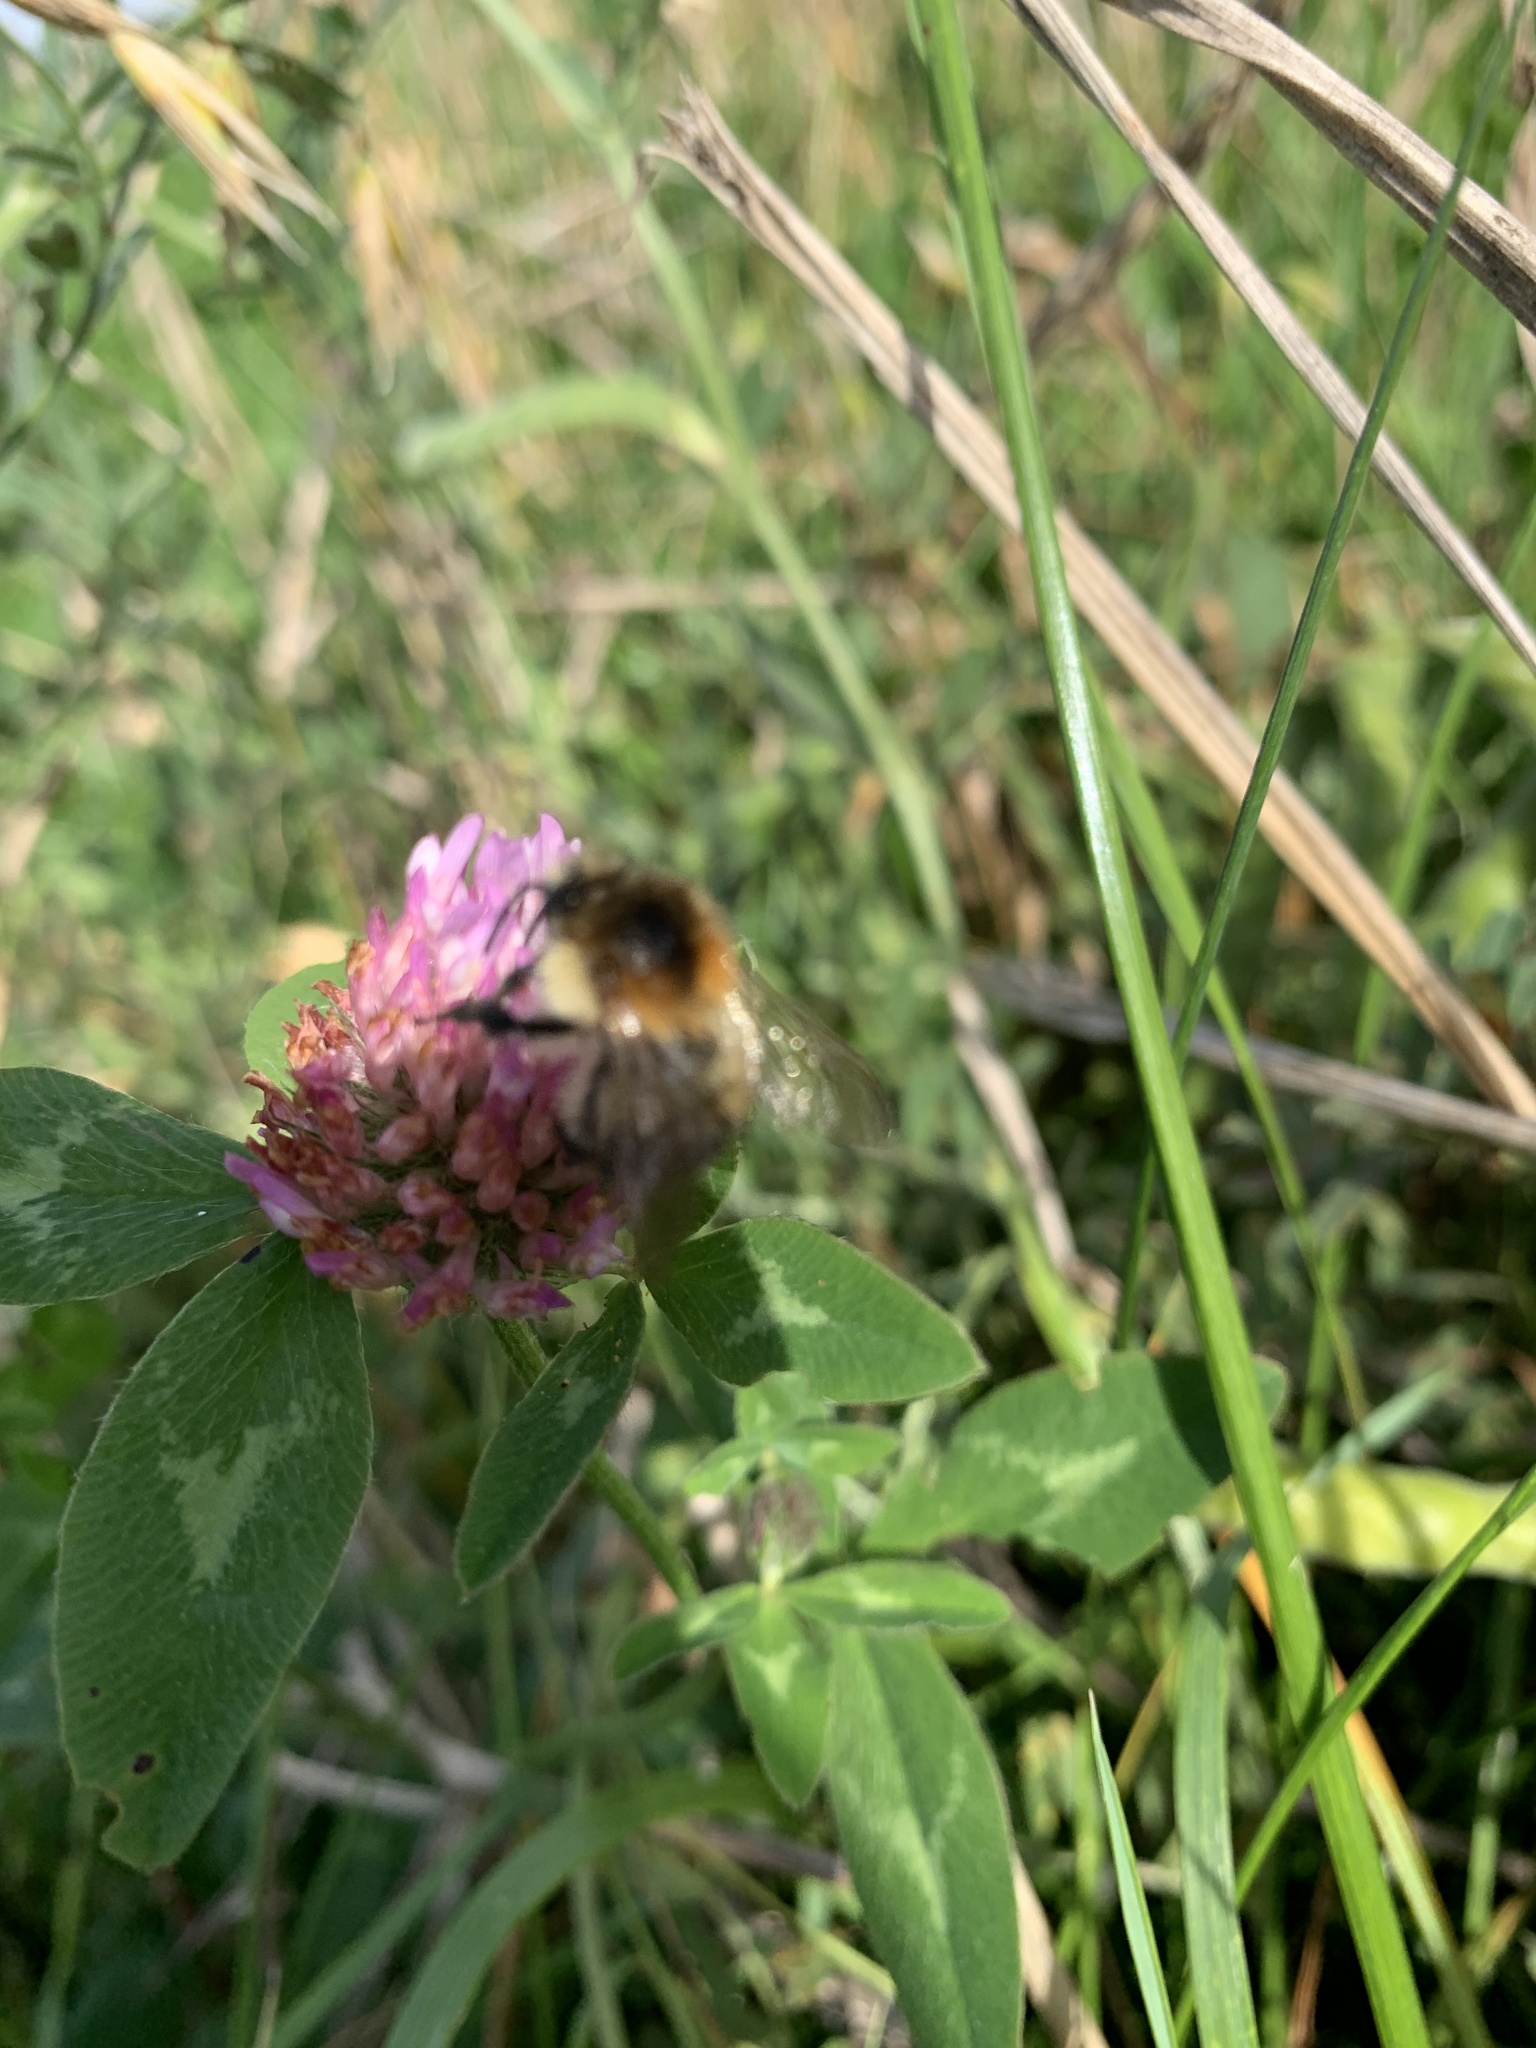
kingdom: Animalia
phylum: Arthropoda
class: Insecta
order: Hymenoptera
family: Apidae
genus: Bombus
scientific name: Bombus pascuorum
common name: Common carder bee
